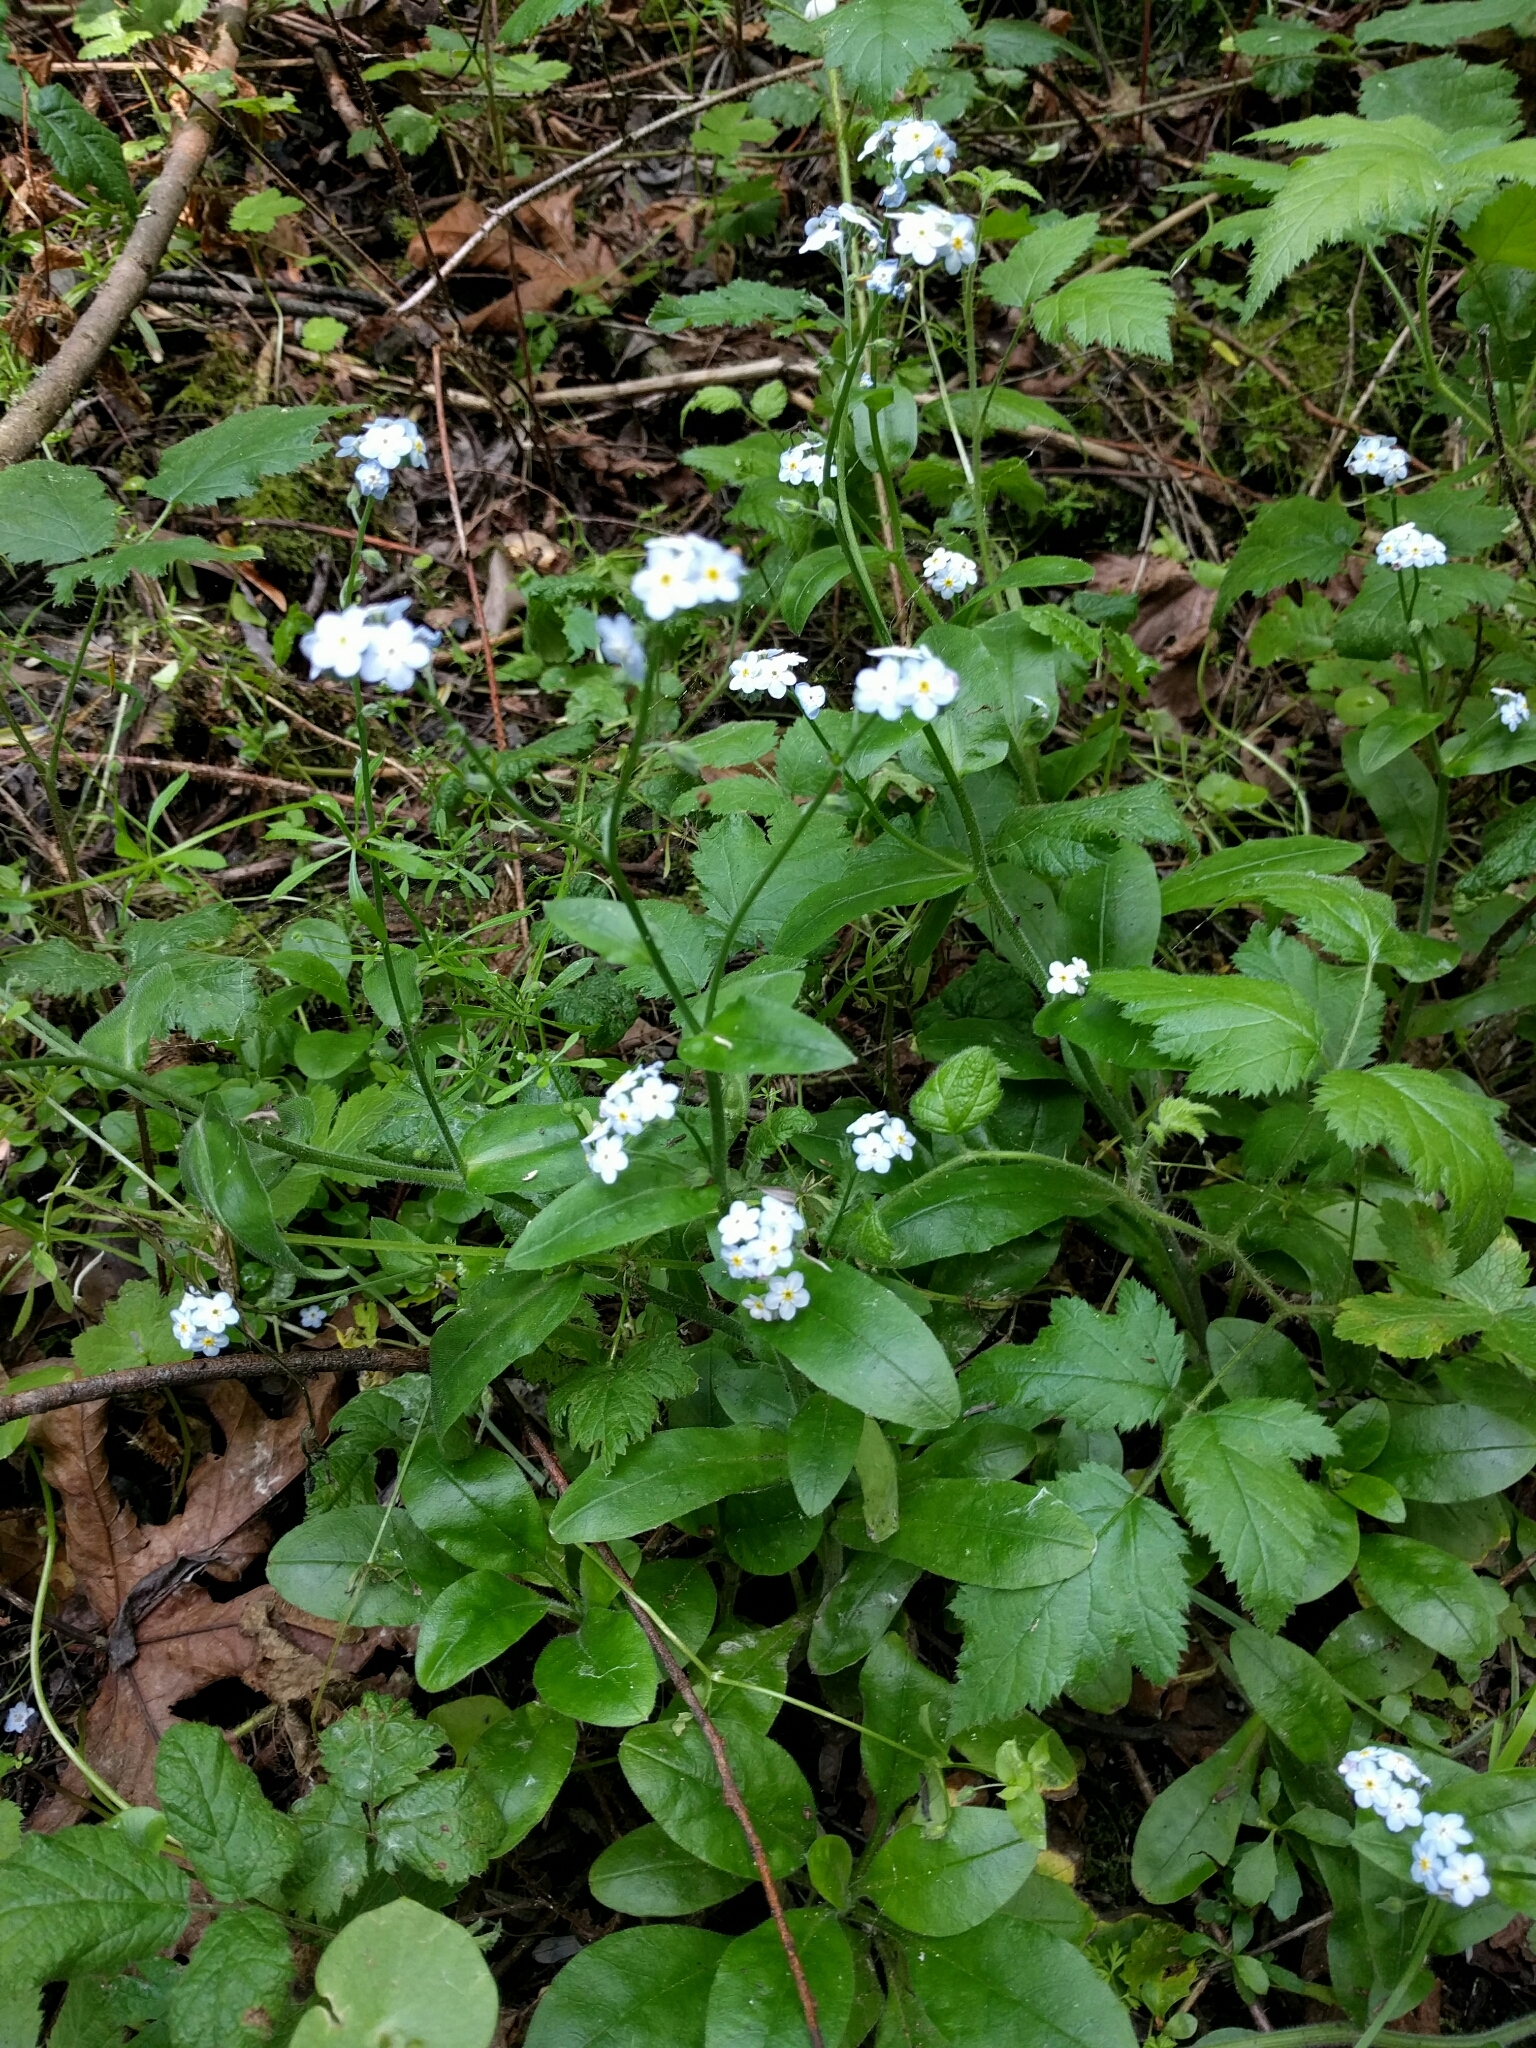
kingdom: Plantae
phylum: Tracheophyta
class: Magnoliopsida
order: Boraginales
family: Boraginaceae
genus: Myosotis
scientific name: Myosotis latifolia
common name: Broadleaf forget-me-not
